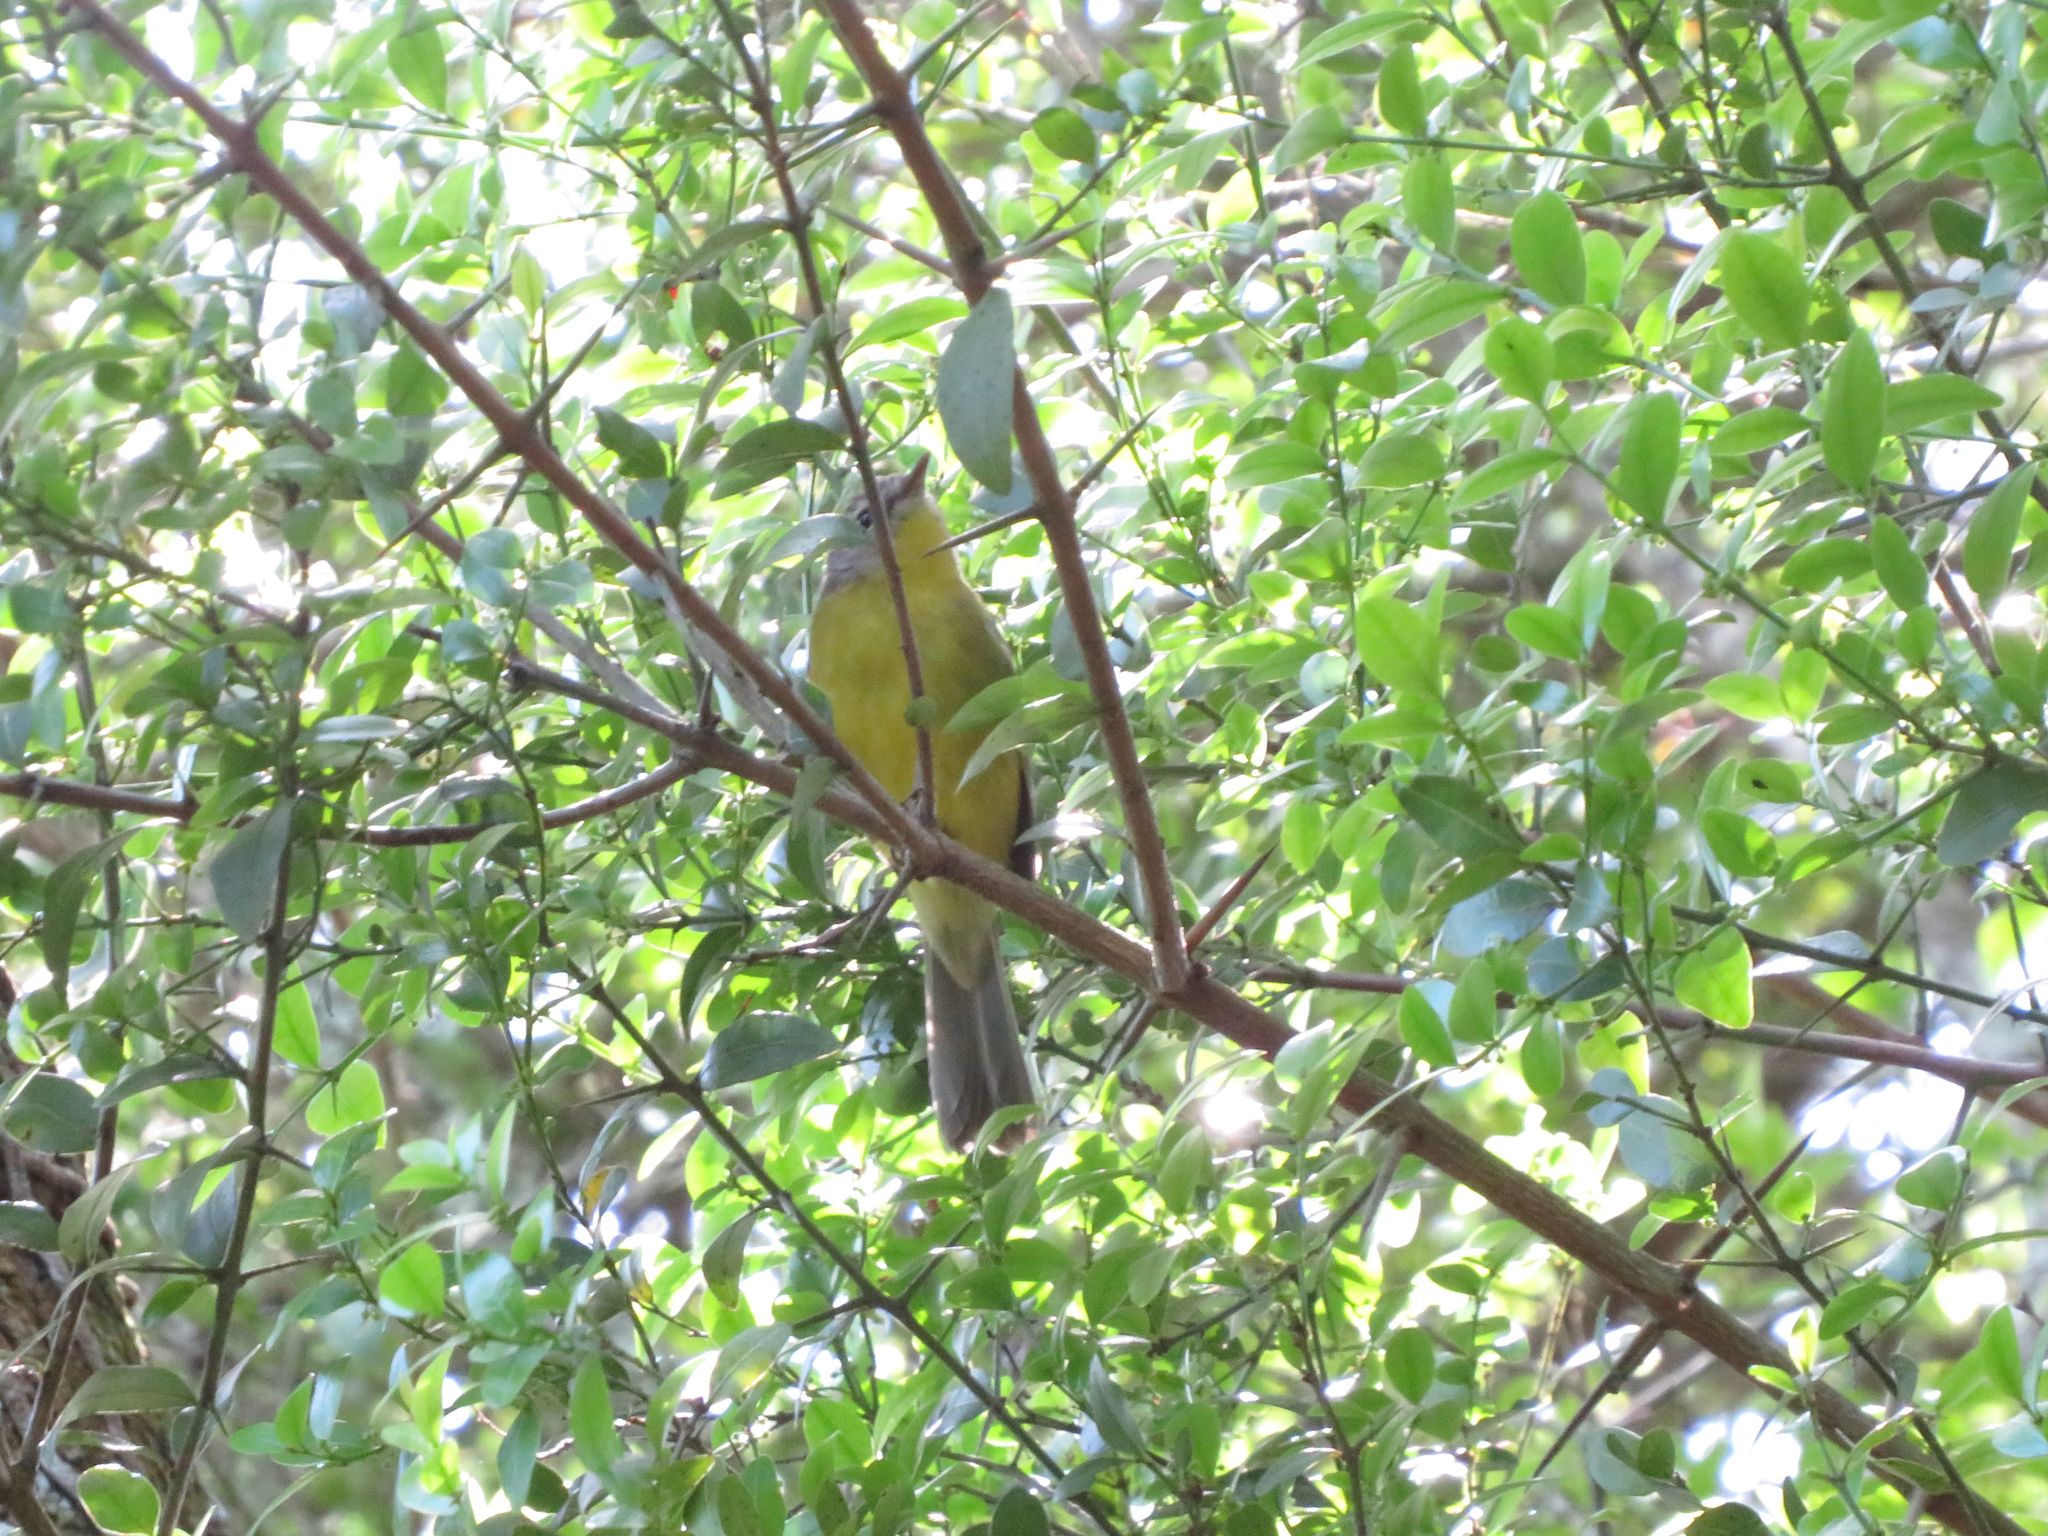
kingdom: Animalia
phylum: Chordata
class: Aves
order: Passeriformes
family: Parulidae
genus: Basileuterus
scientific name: Basileuterus culicivorus
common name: Golden-crowned warbler
